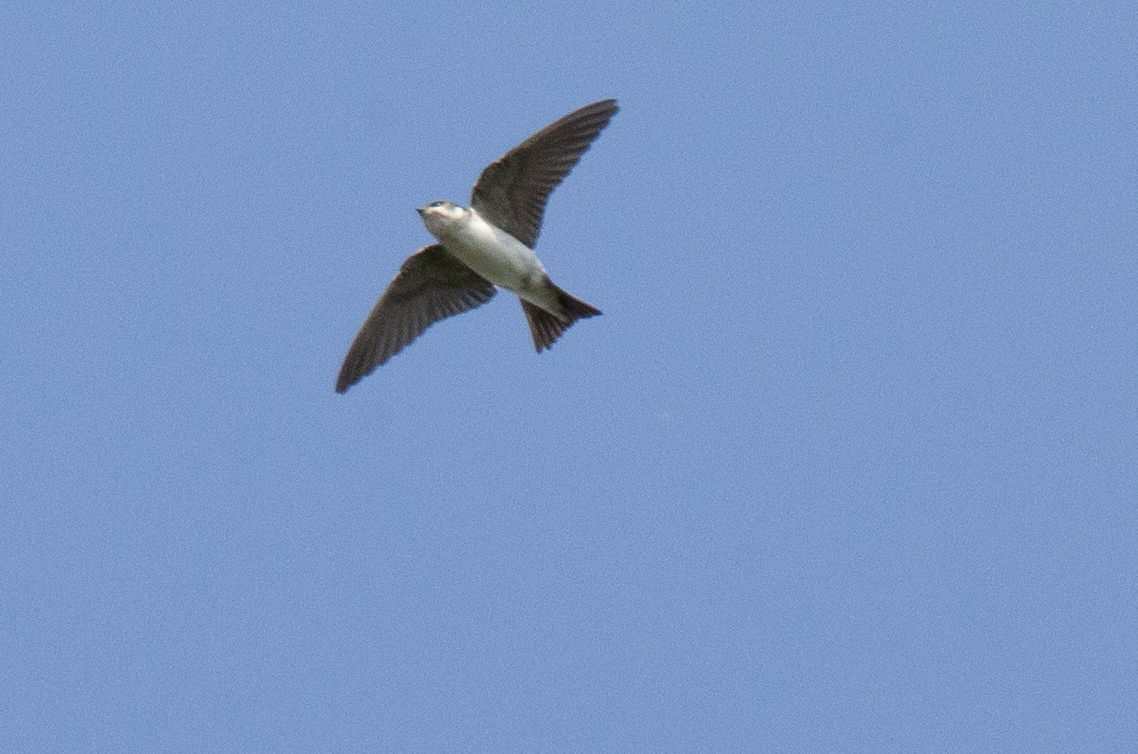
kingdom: Animalia
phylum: Chordata
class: Aves
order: Passeriformes
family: Hirundinidae
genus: Delichon
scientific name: Delichon urbicum
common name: Common house martin
